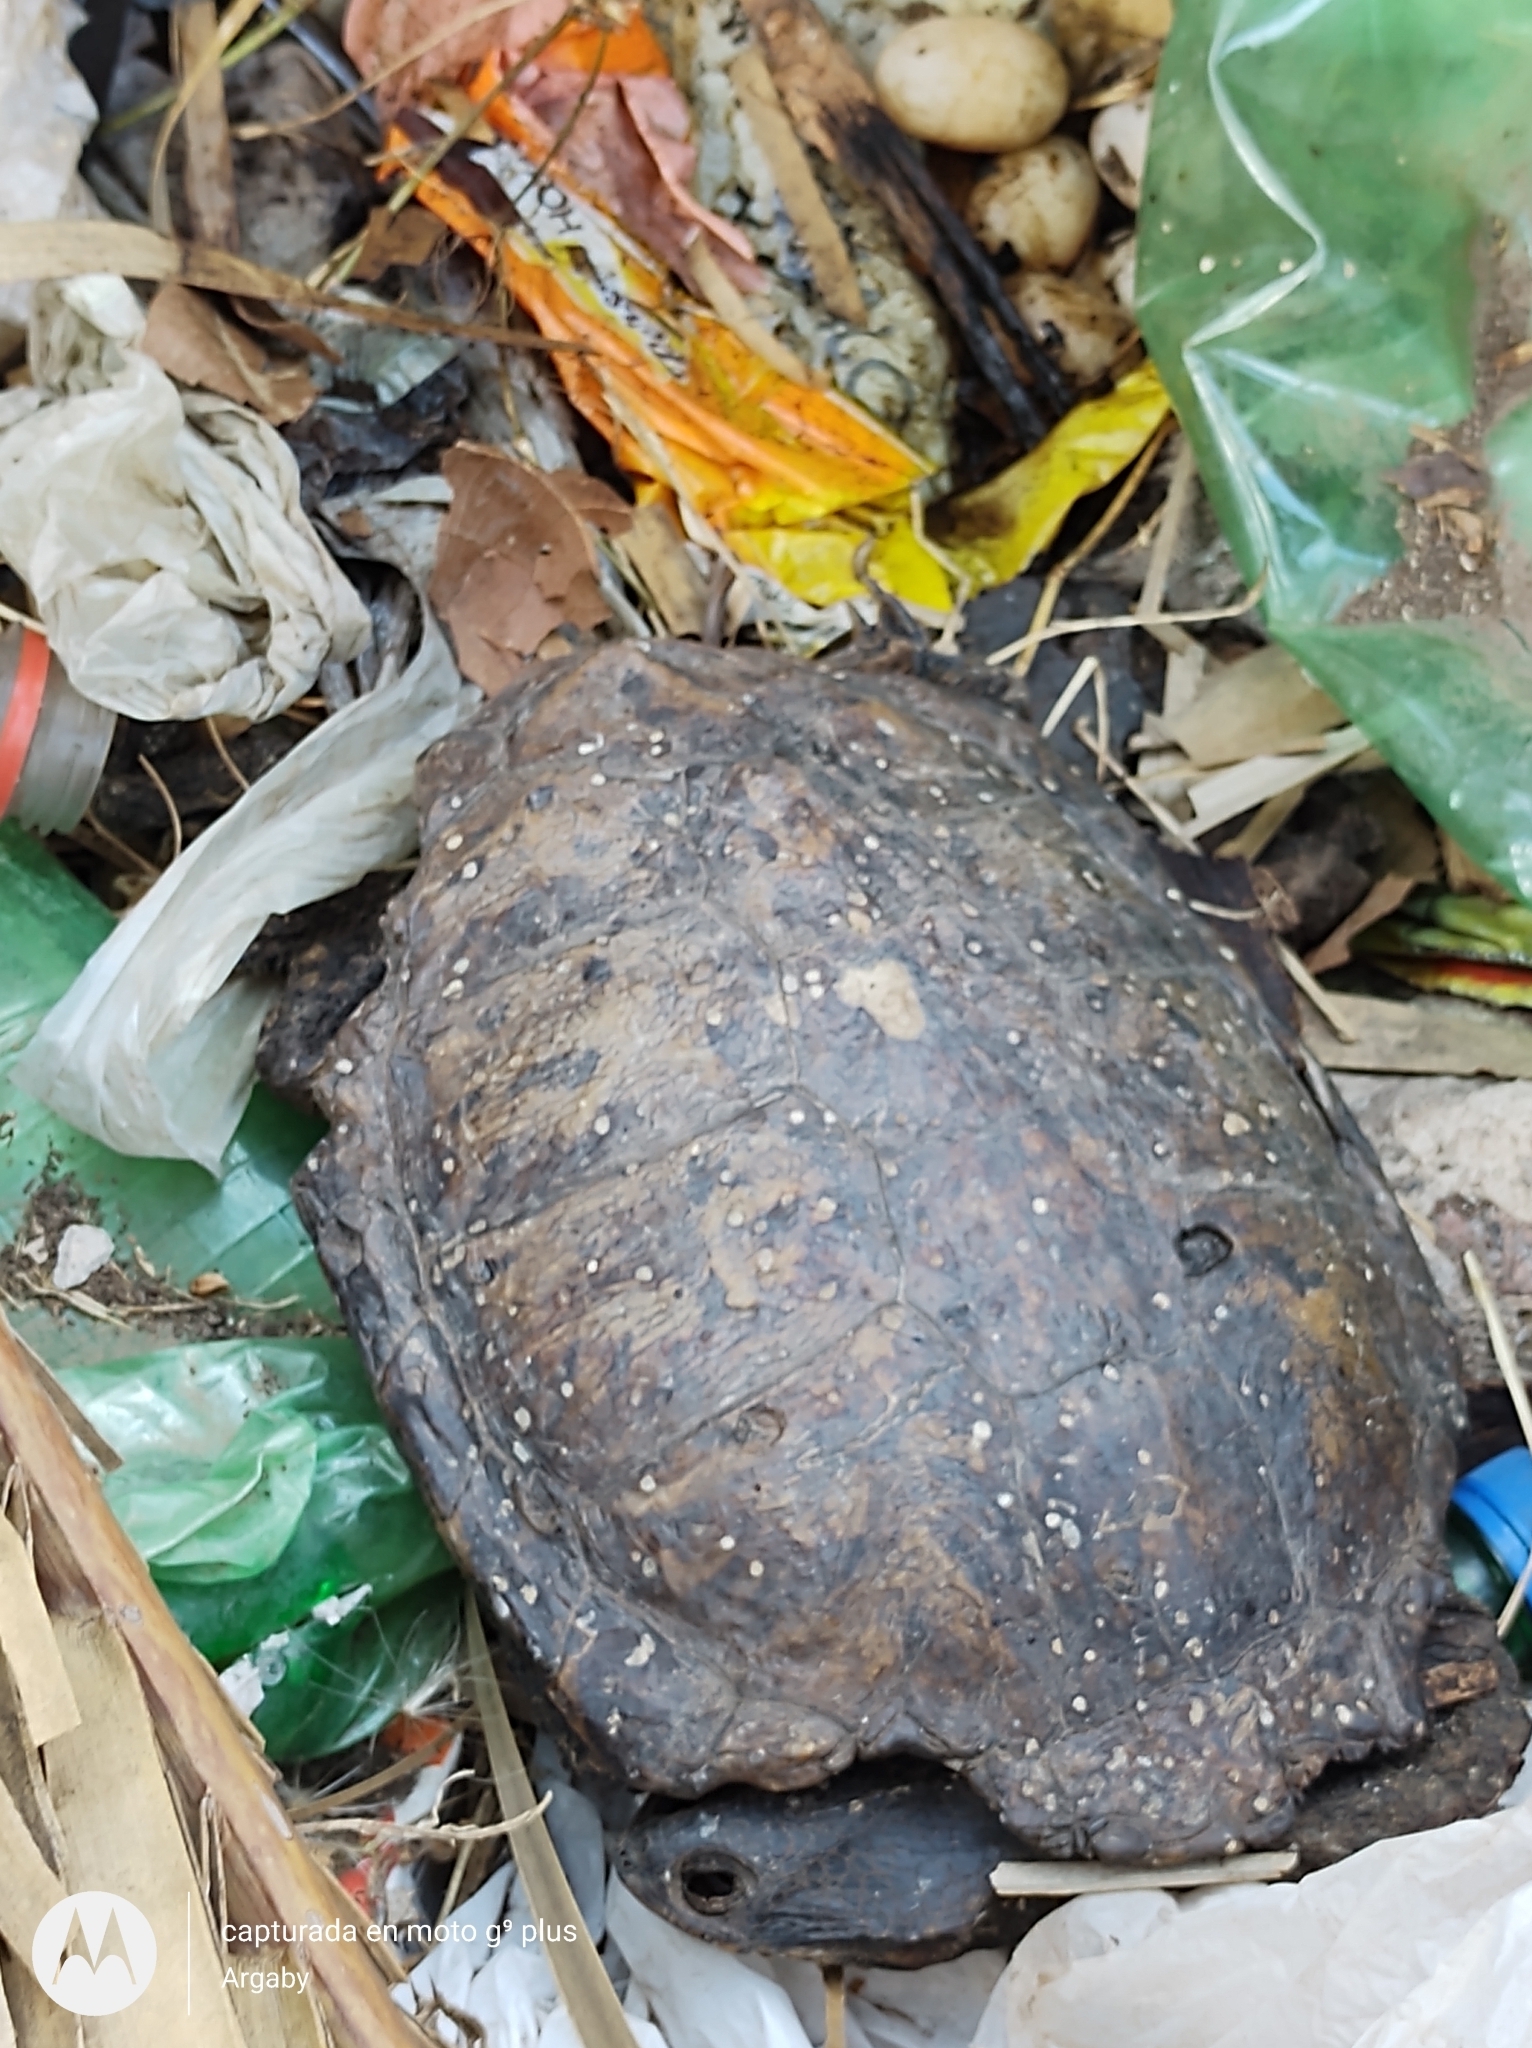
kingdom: Animalia
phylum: Chordata
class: Testudines
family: Chelidae
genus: Hydromedusa
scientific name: Hydromedusa tectifera
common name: Argentine snake-necked turtle
